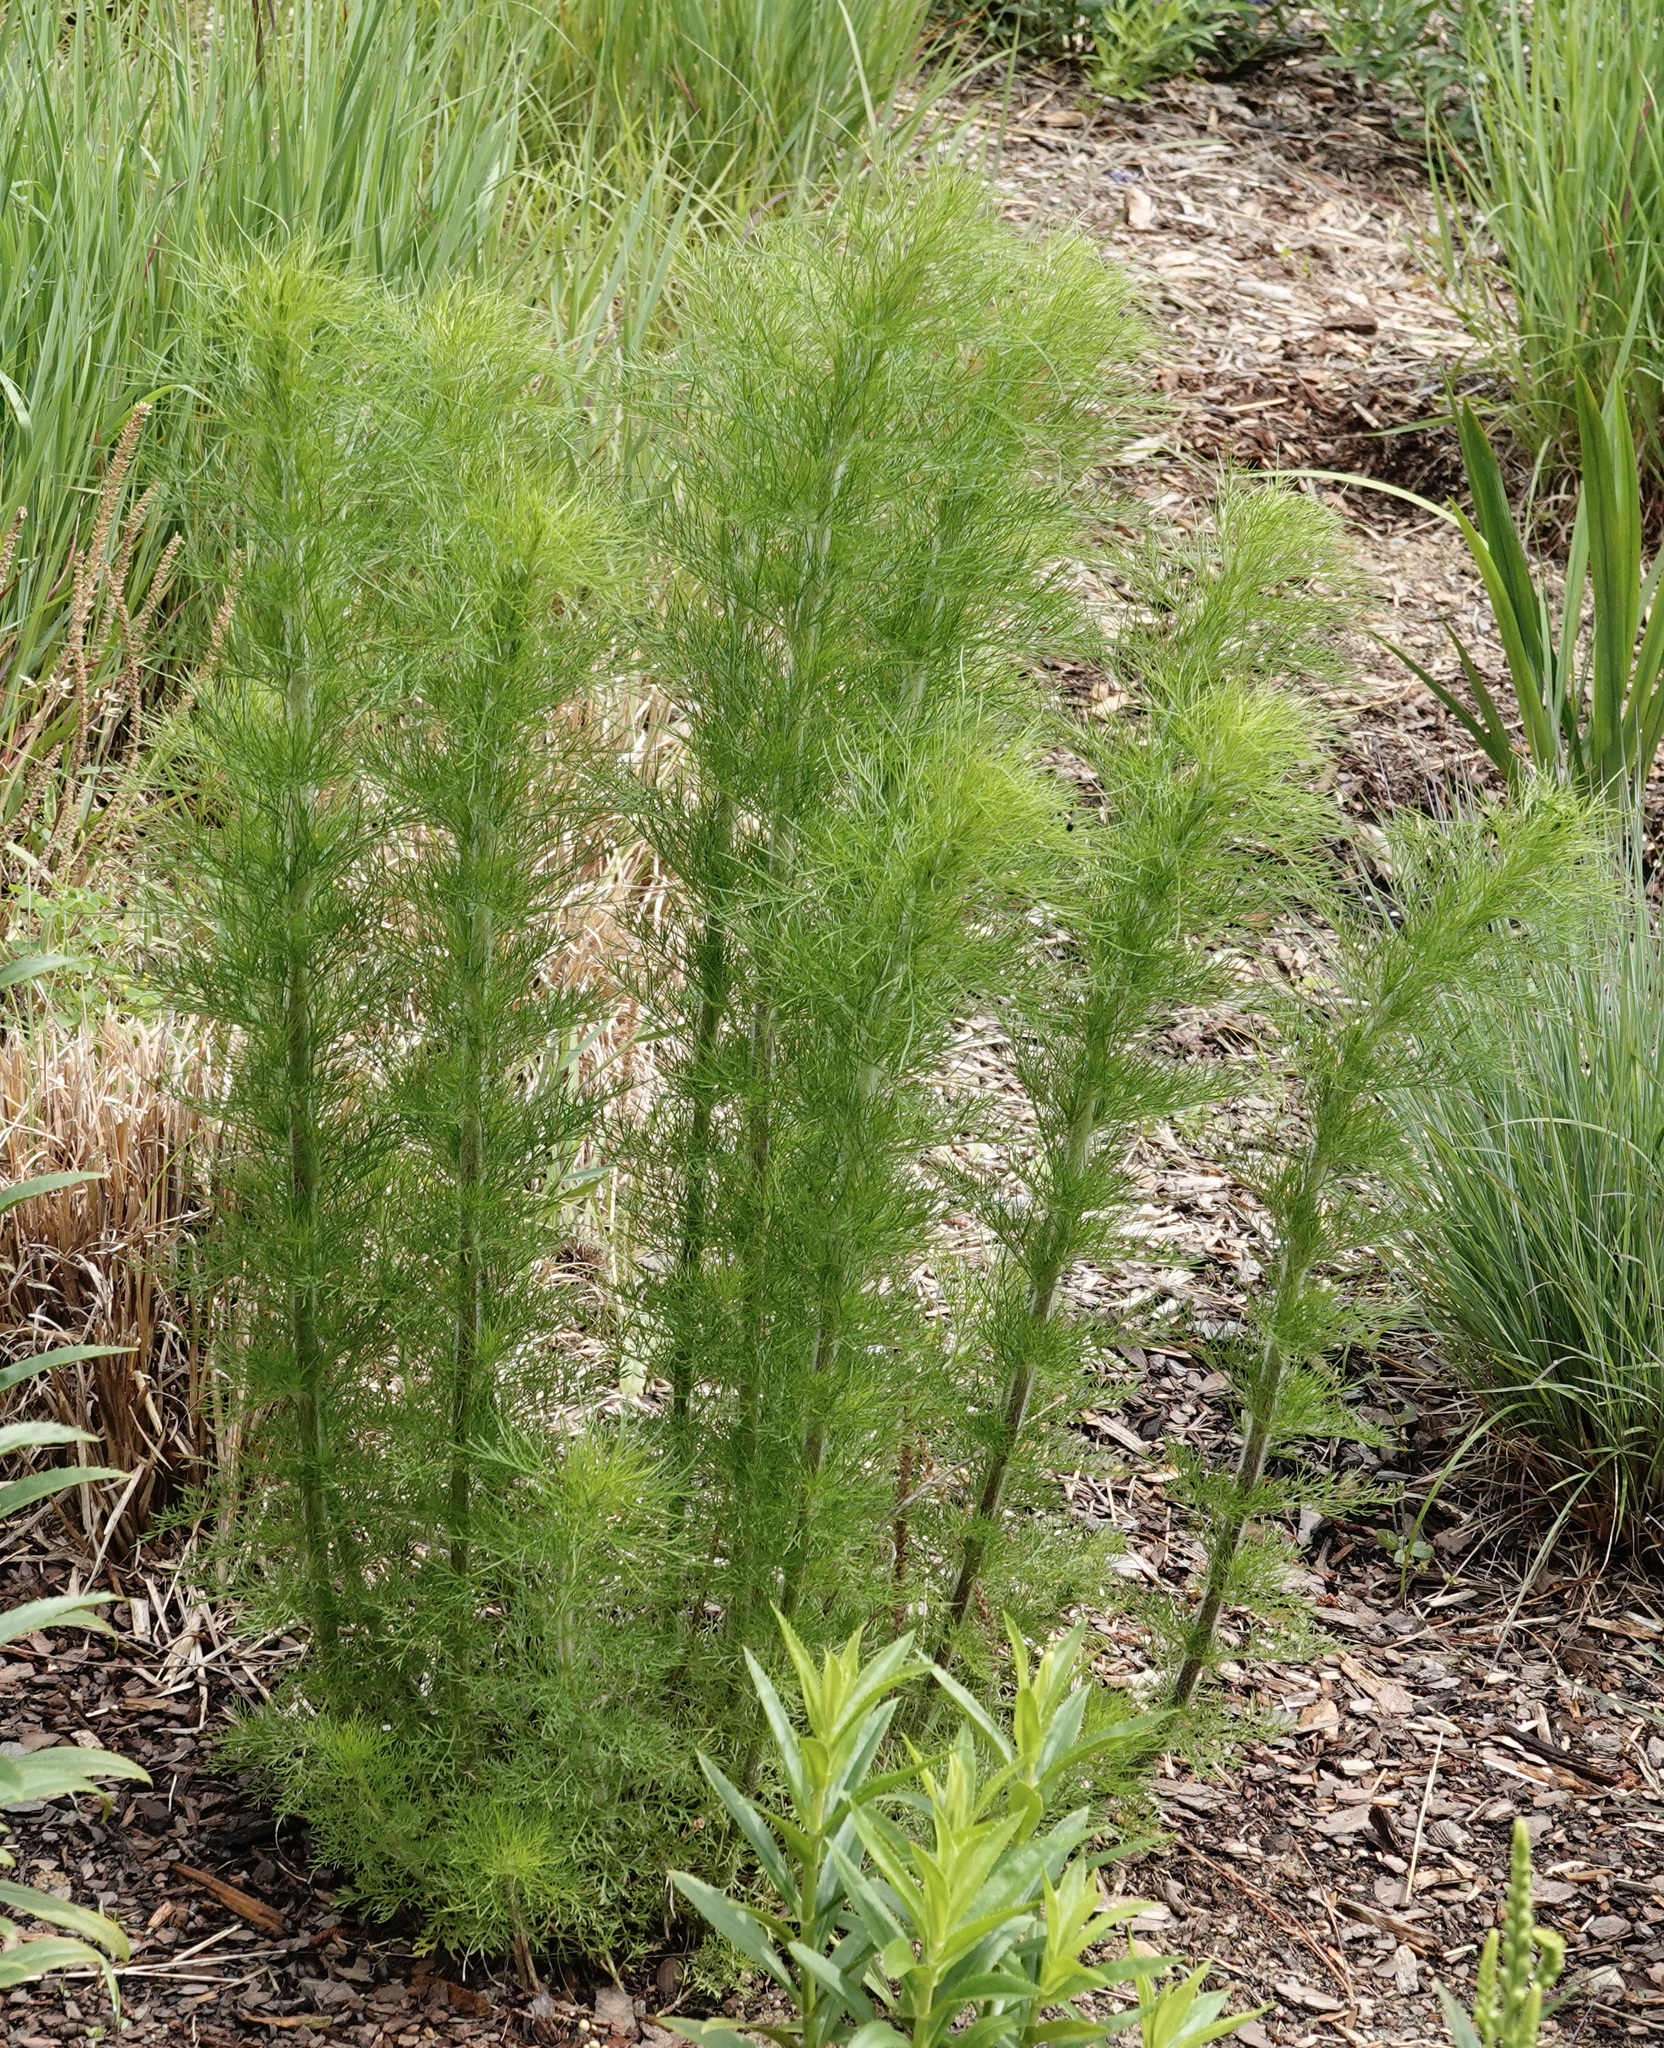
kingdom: Plantae
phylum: Tracheophyta
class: Magnoliopsida
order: Asterales
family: Asteraceae
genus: Eupatorium
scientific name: Eupatorium capillifolium
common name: Dog-fennel
